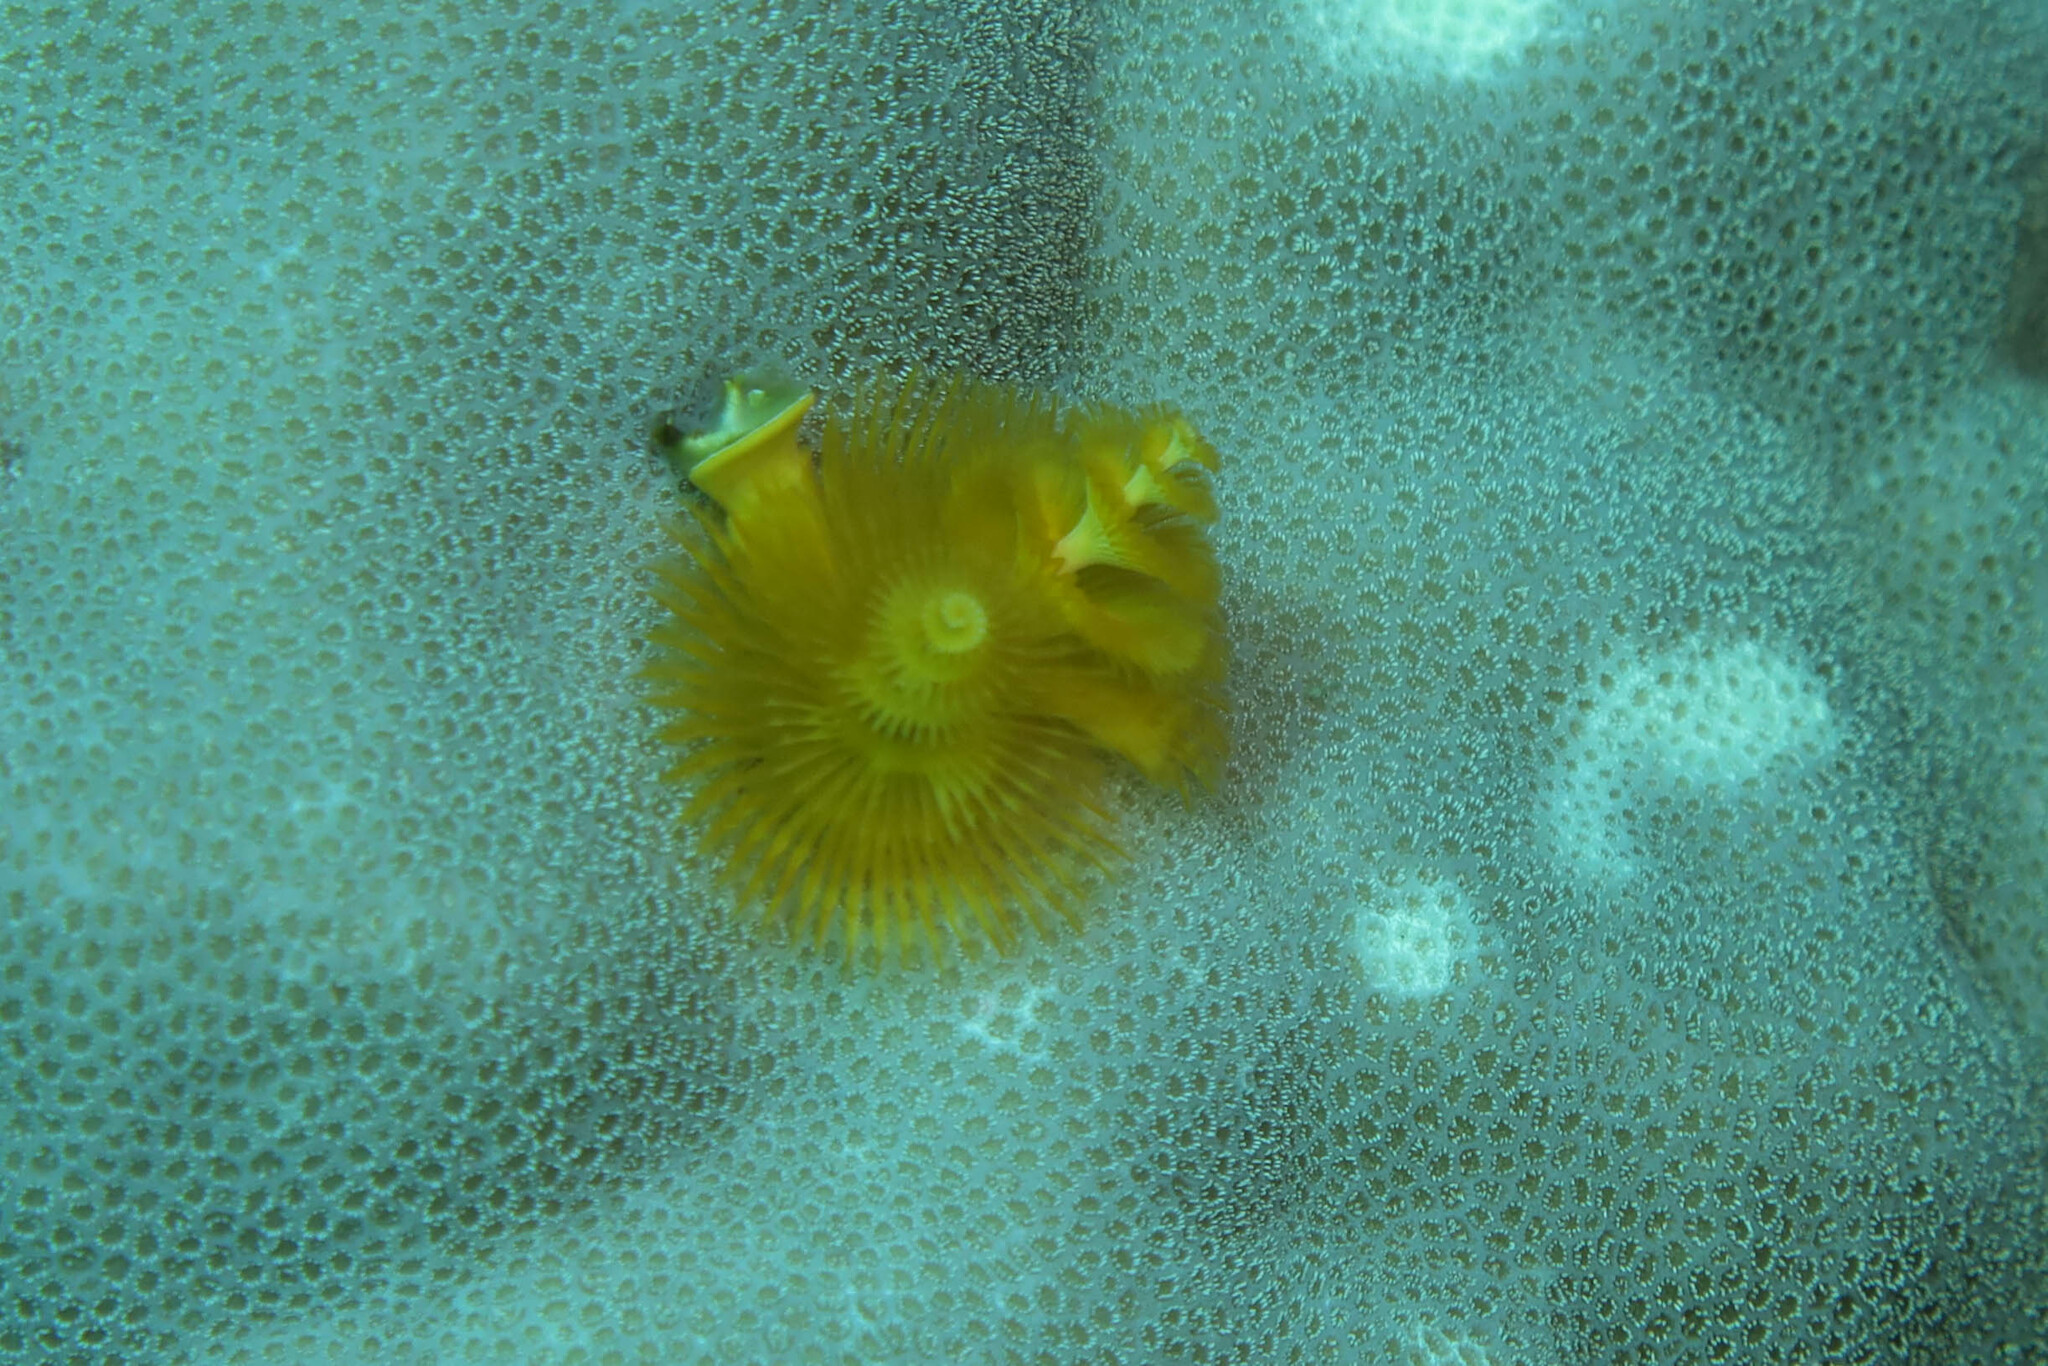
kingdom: Animalia
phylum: Annelida
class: Polychaeta
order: Sabellida
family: Serpulidae
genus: Spirobranchus
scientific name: Spirobranchus
